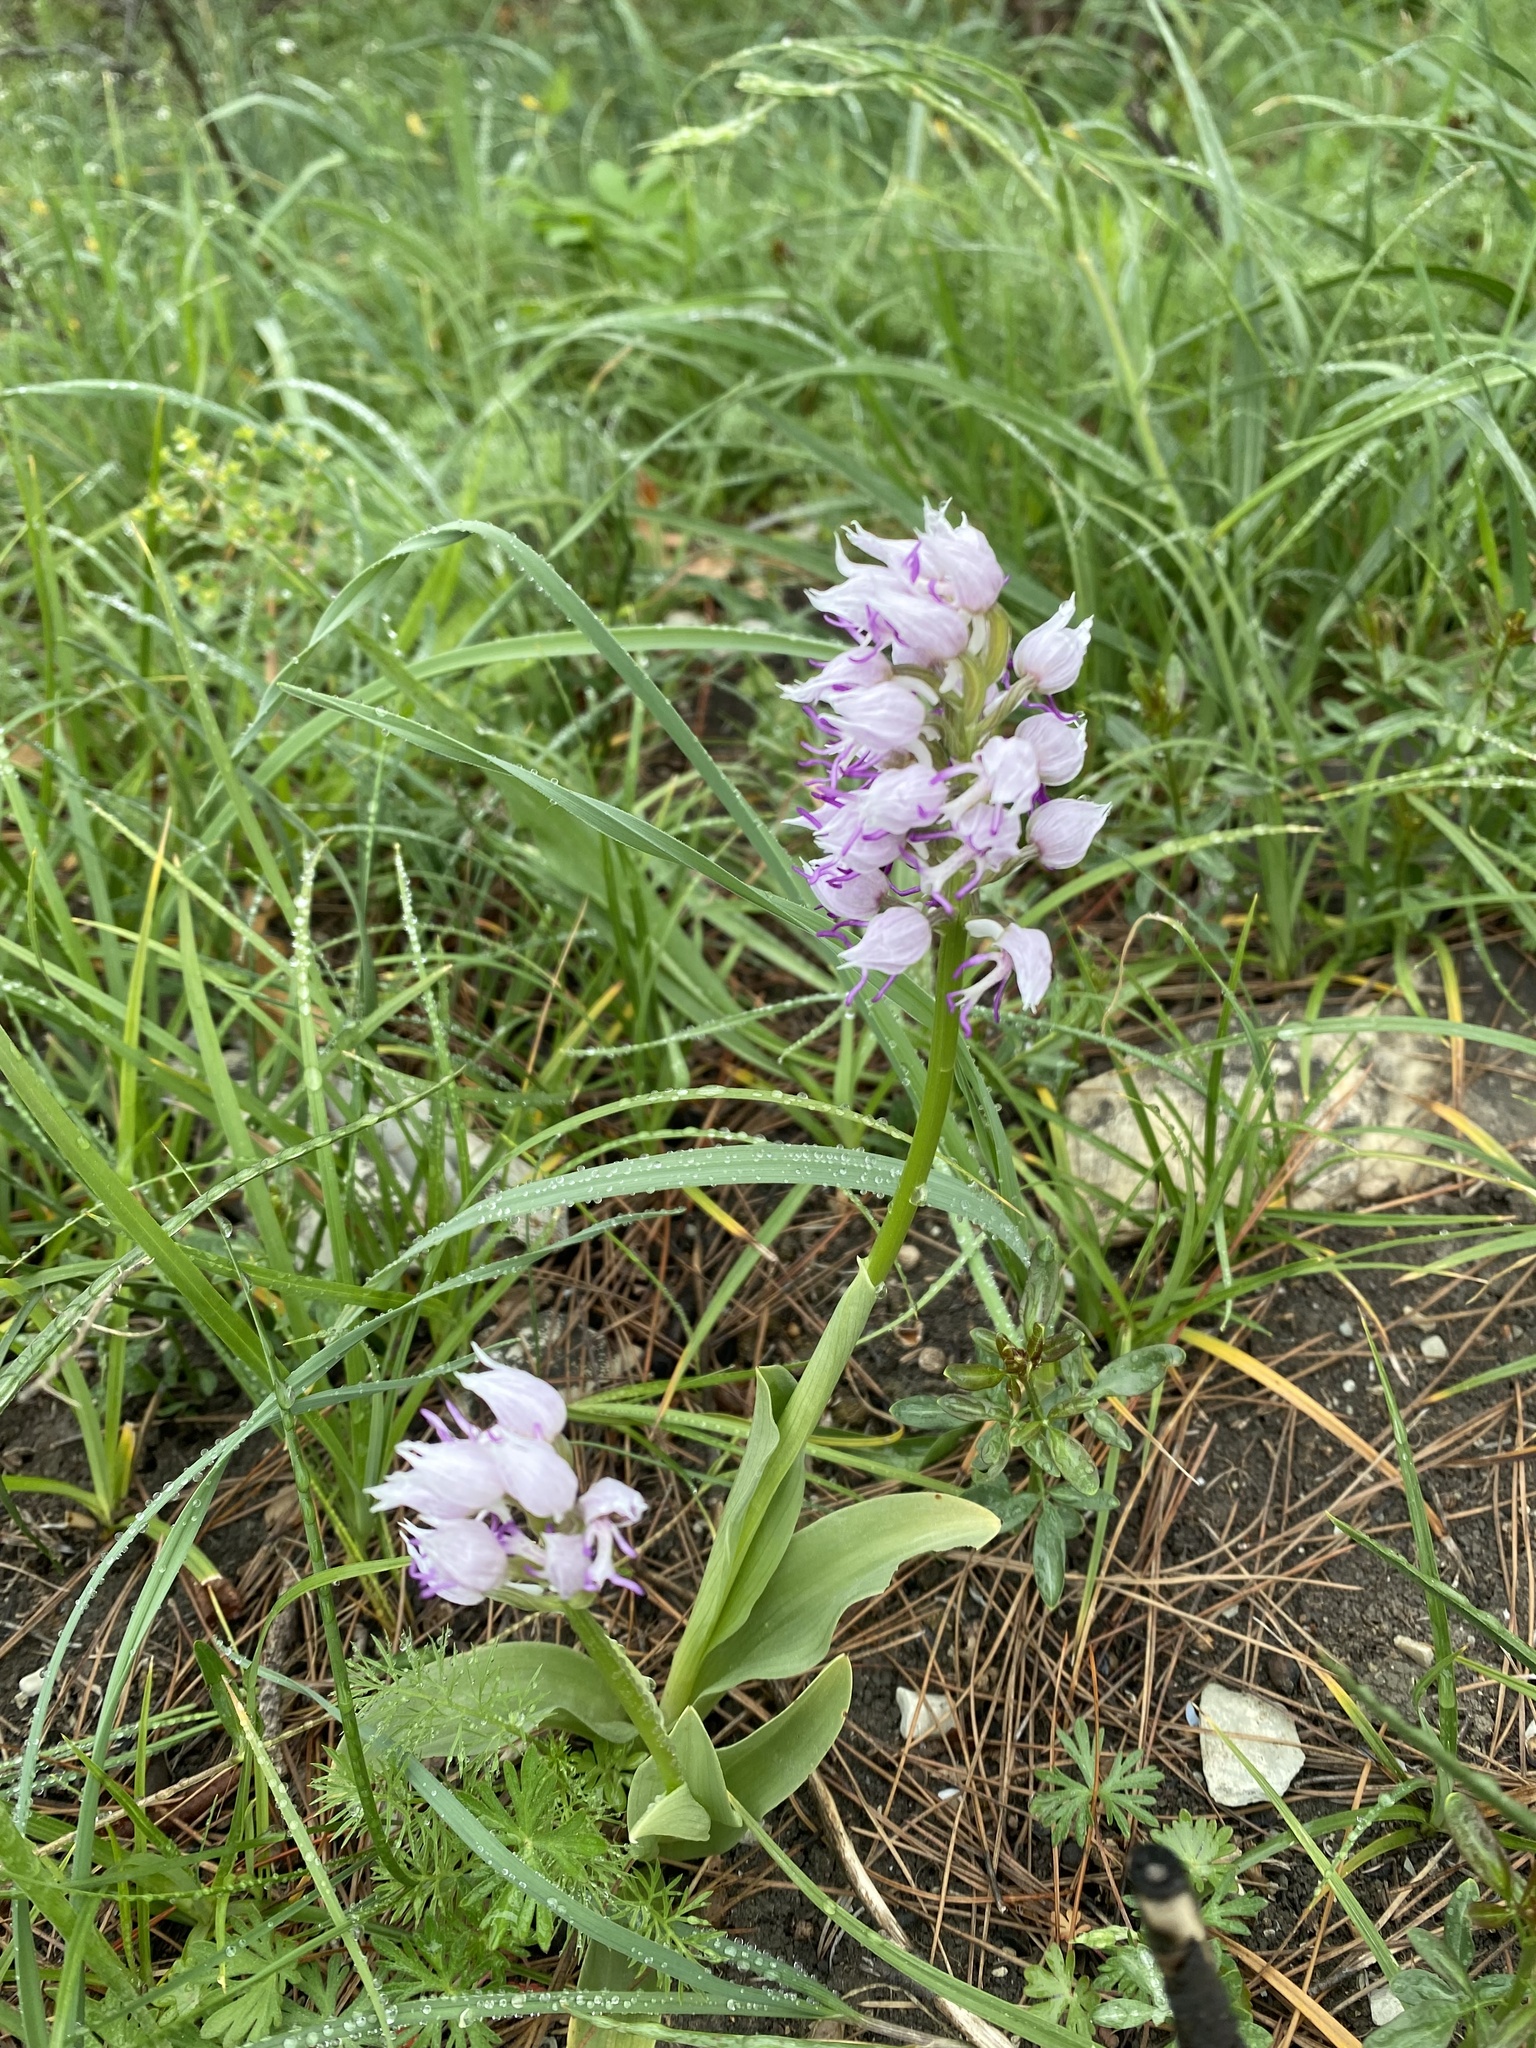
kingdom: Plantae
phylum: Tracheophyta
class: Liliopsida
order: Asparagales
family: Orchidaceae
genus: Orchis
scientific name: Orchis simia
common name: Monkey orchid
